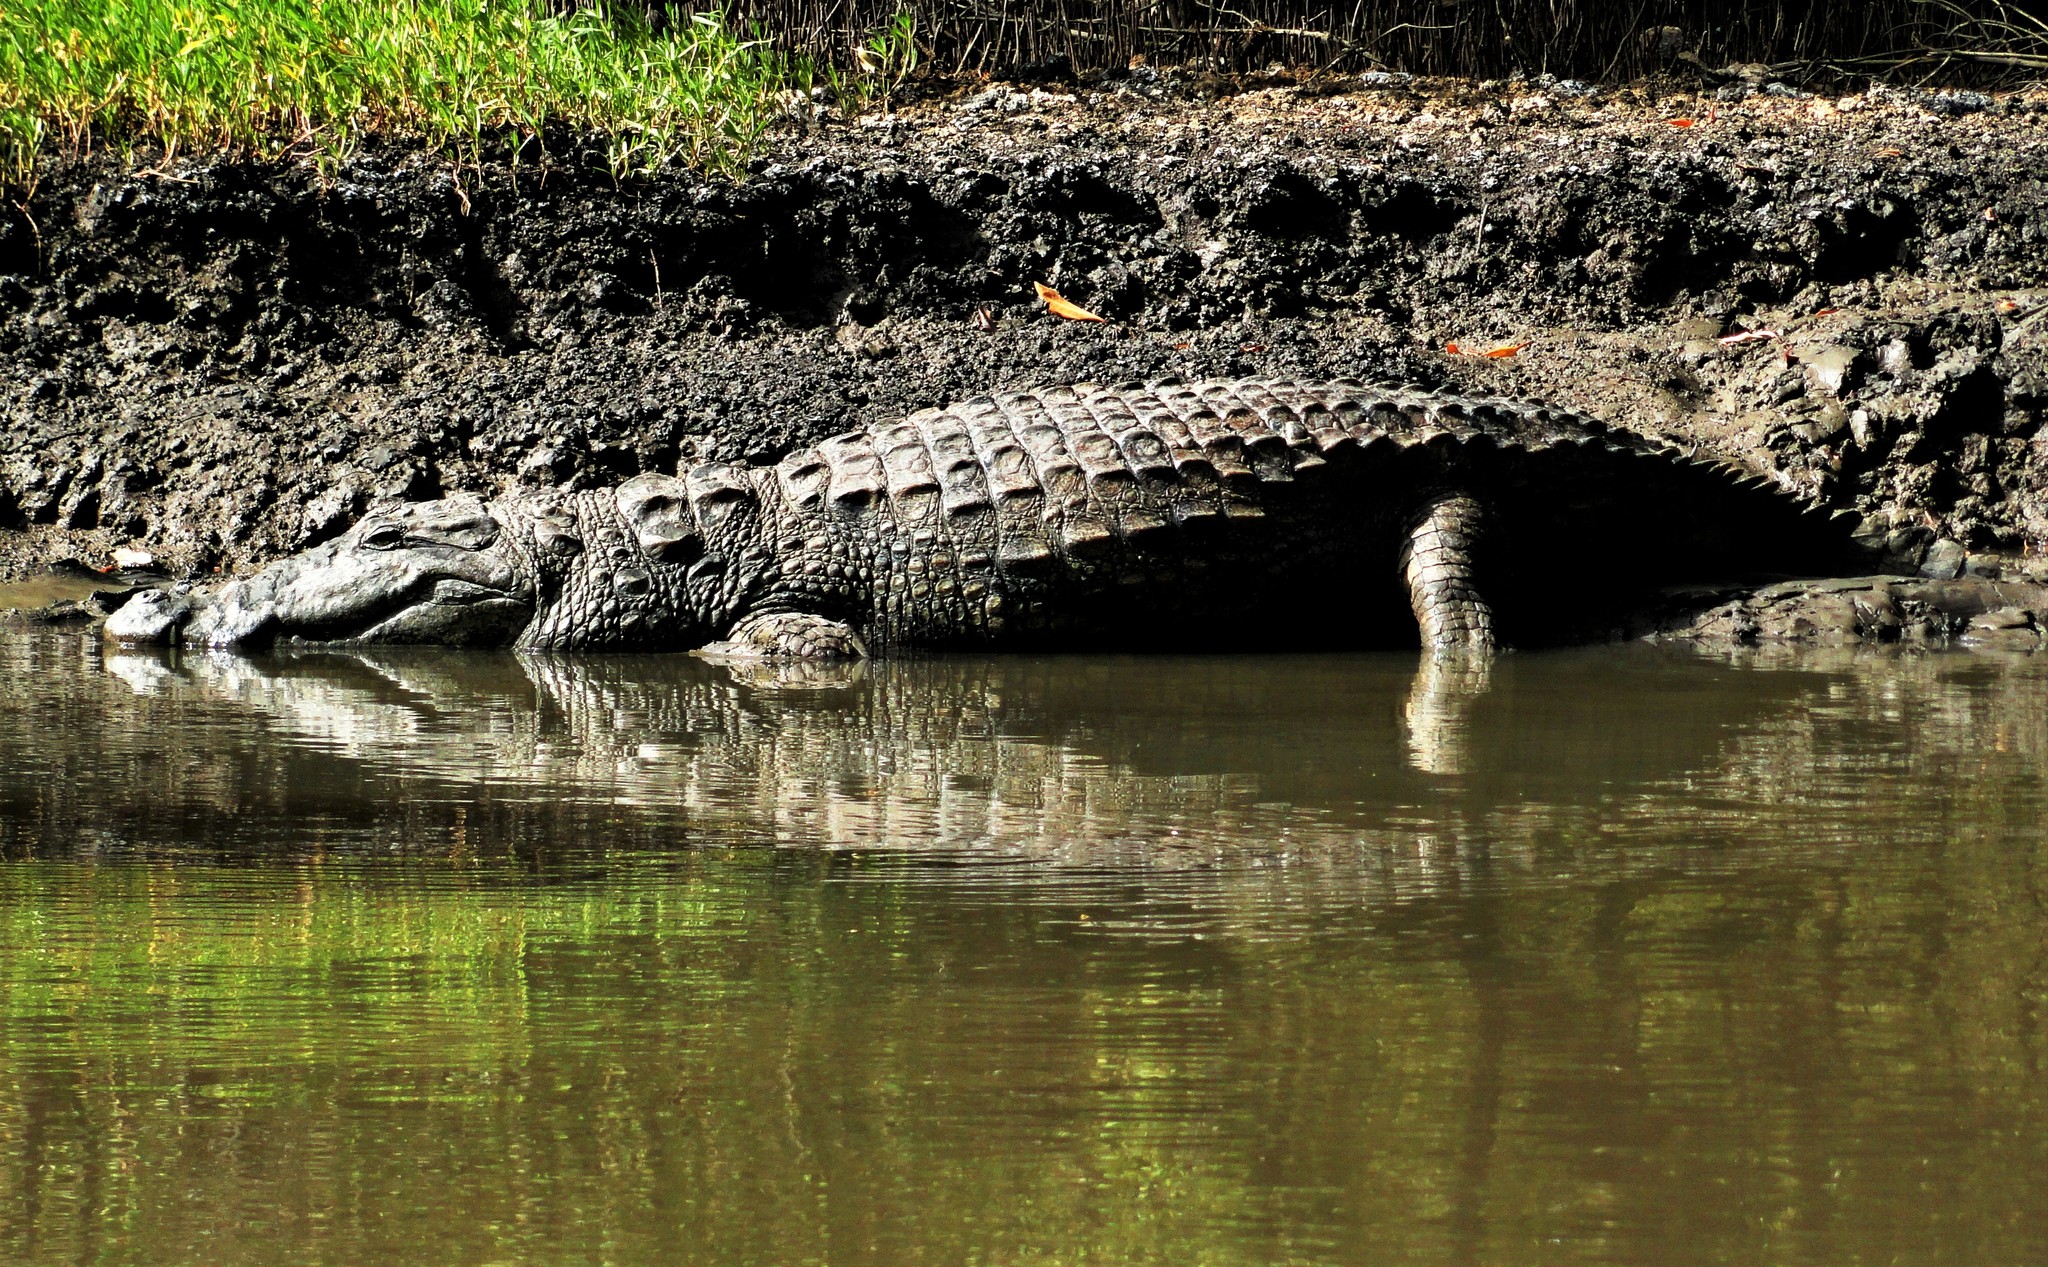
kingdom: Animalia
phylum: Chordata
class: Crocodylia
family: Crocodylidae
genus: Crocodylus
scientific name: Crocodylus suchus
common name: West african crocodile
